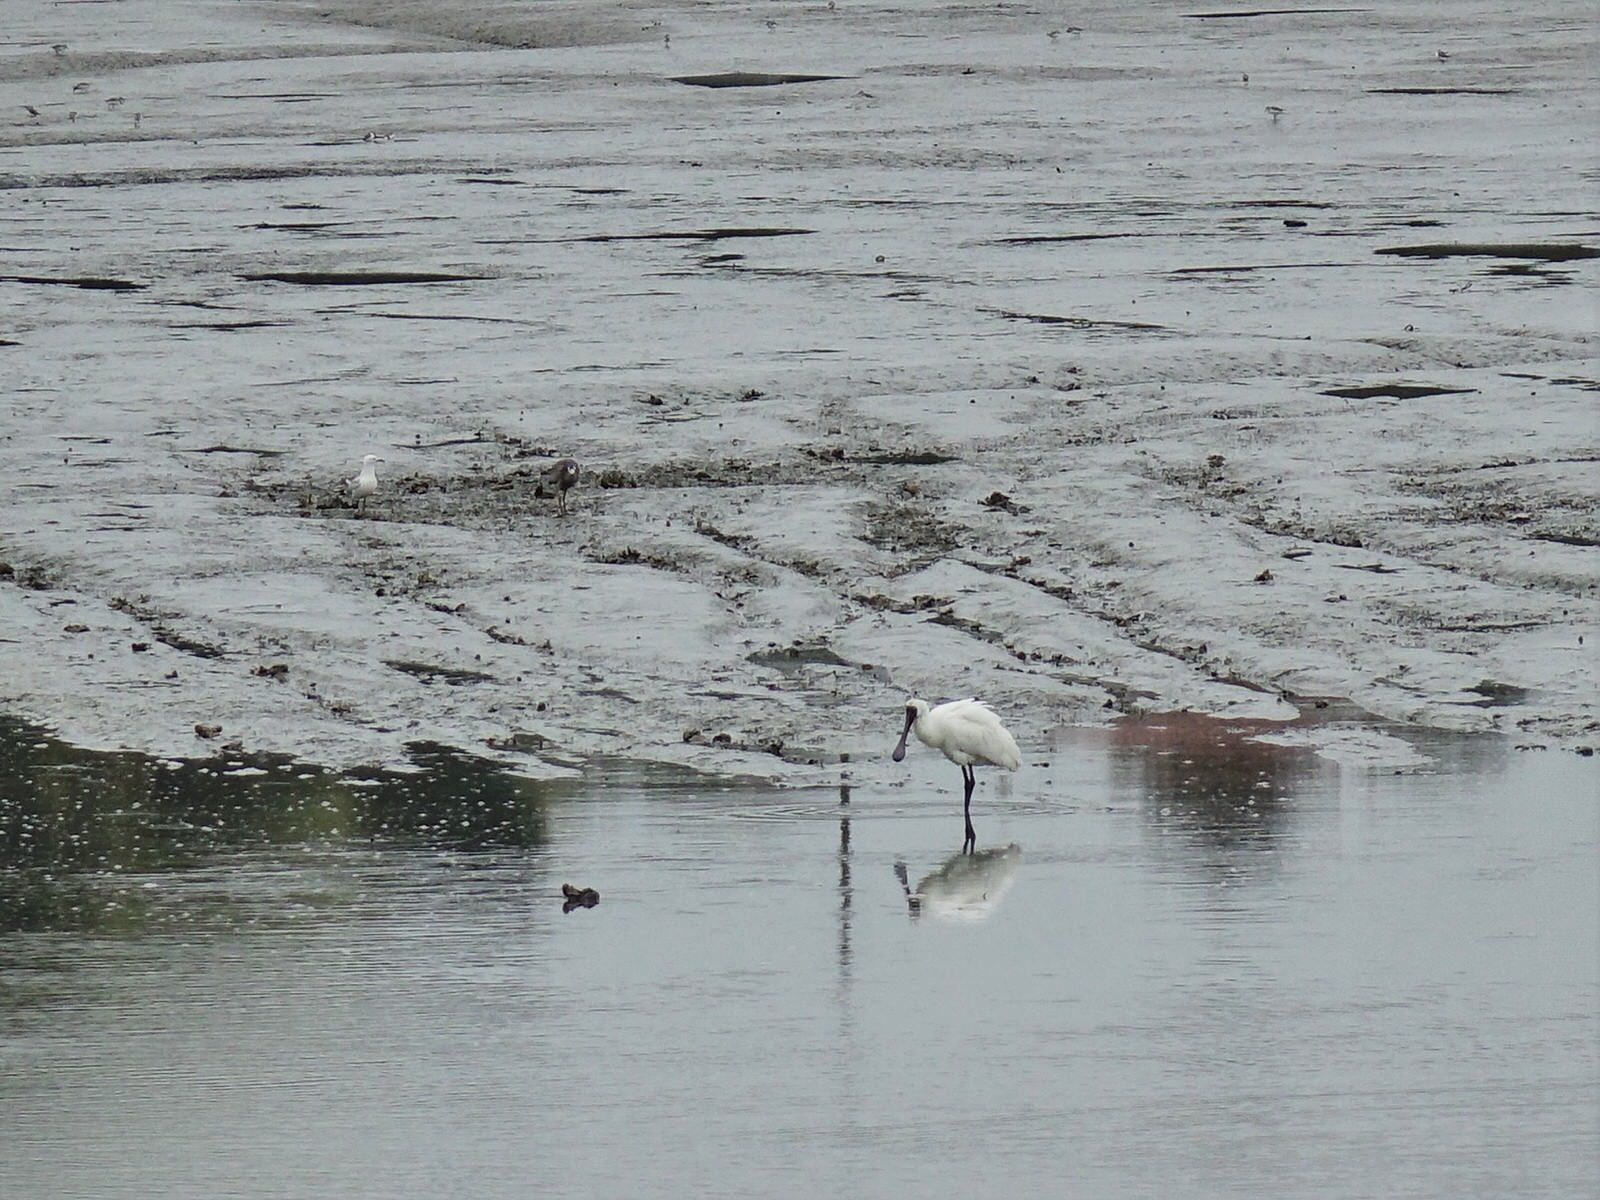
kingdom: Animalia
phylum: Chordata
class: Aves
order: Pelecaniformes
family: Threskiornithidae
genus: Platalea
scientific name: Platalea regia
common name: Royal spoonbill
